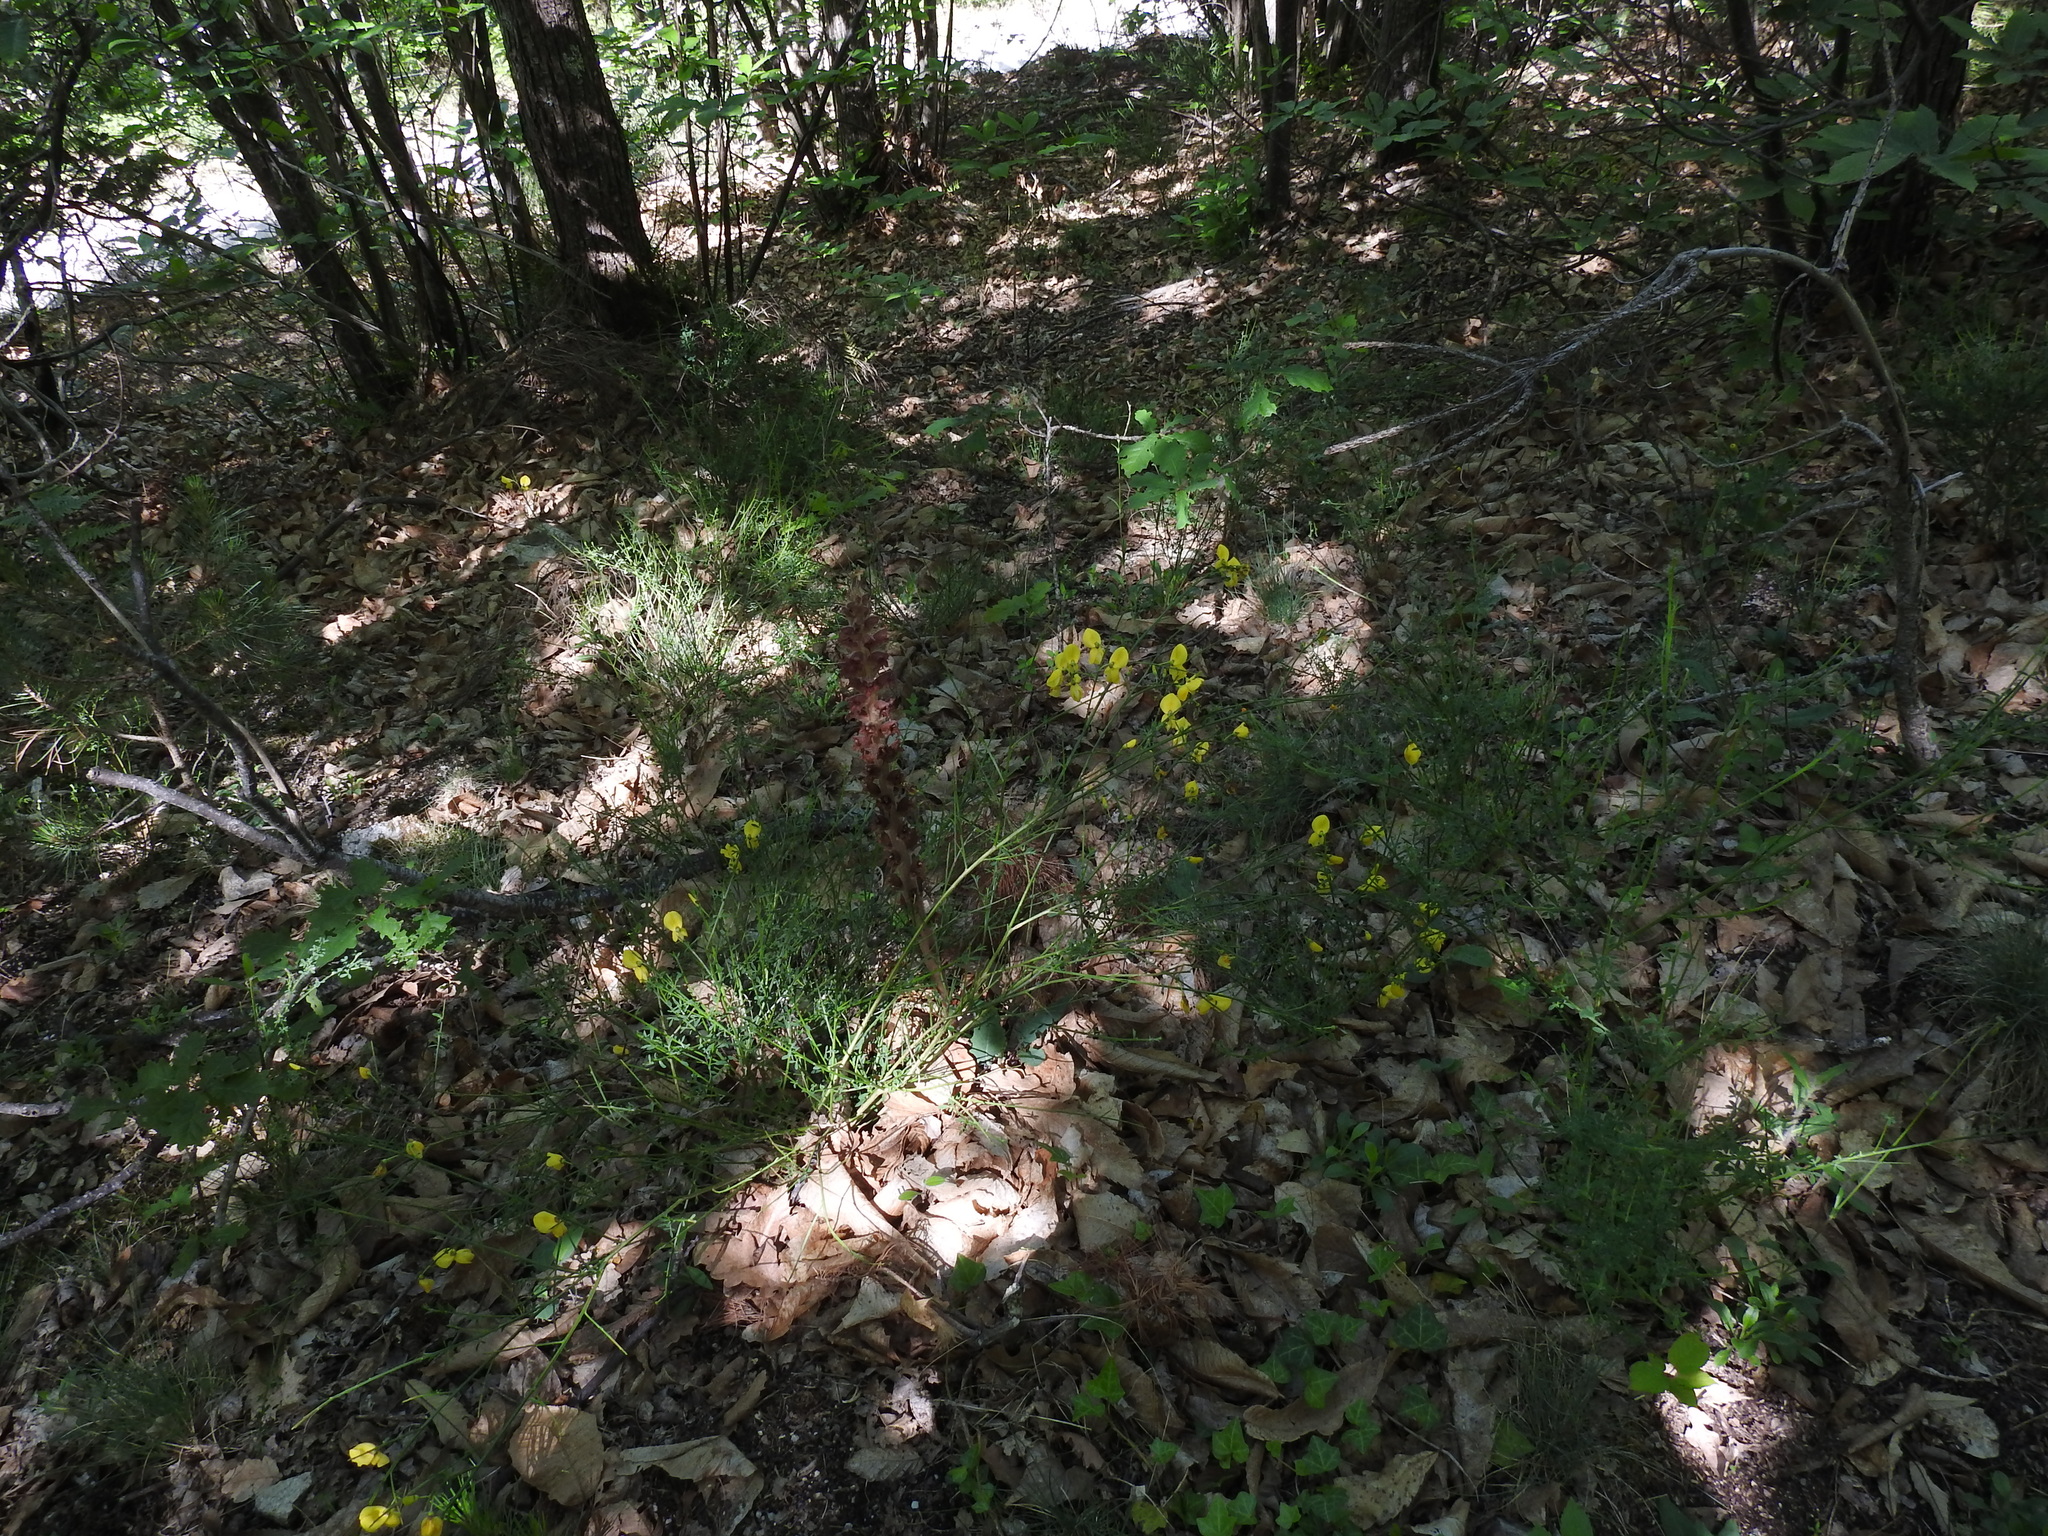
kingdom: Plantae
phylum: Tracheophyta
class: Magnoliopsida
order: Lamiales
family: Orobanchaceae
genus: Orobanche
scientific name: Orobanche rapum-genistae
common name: Greater broomrape
